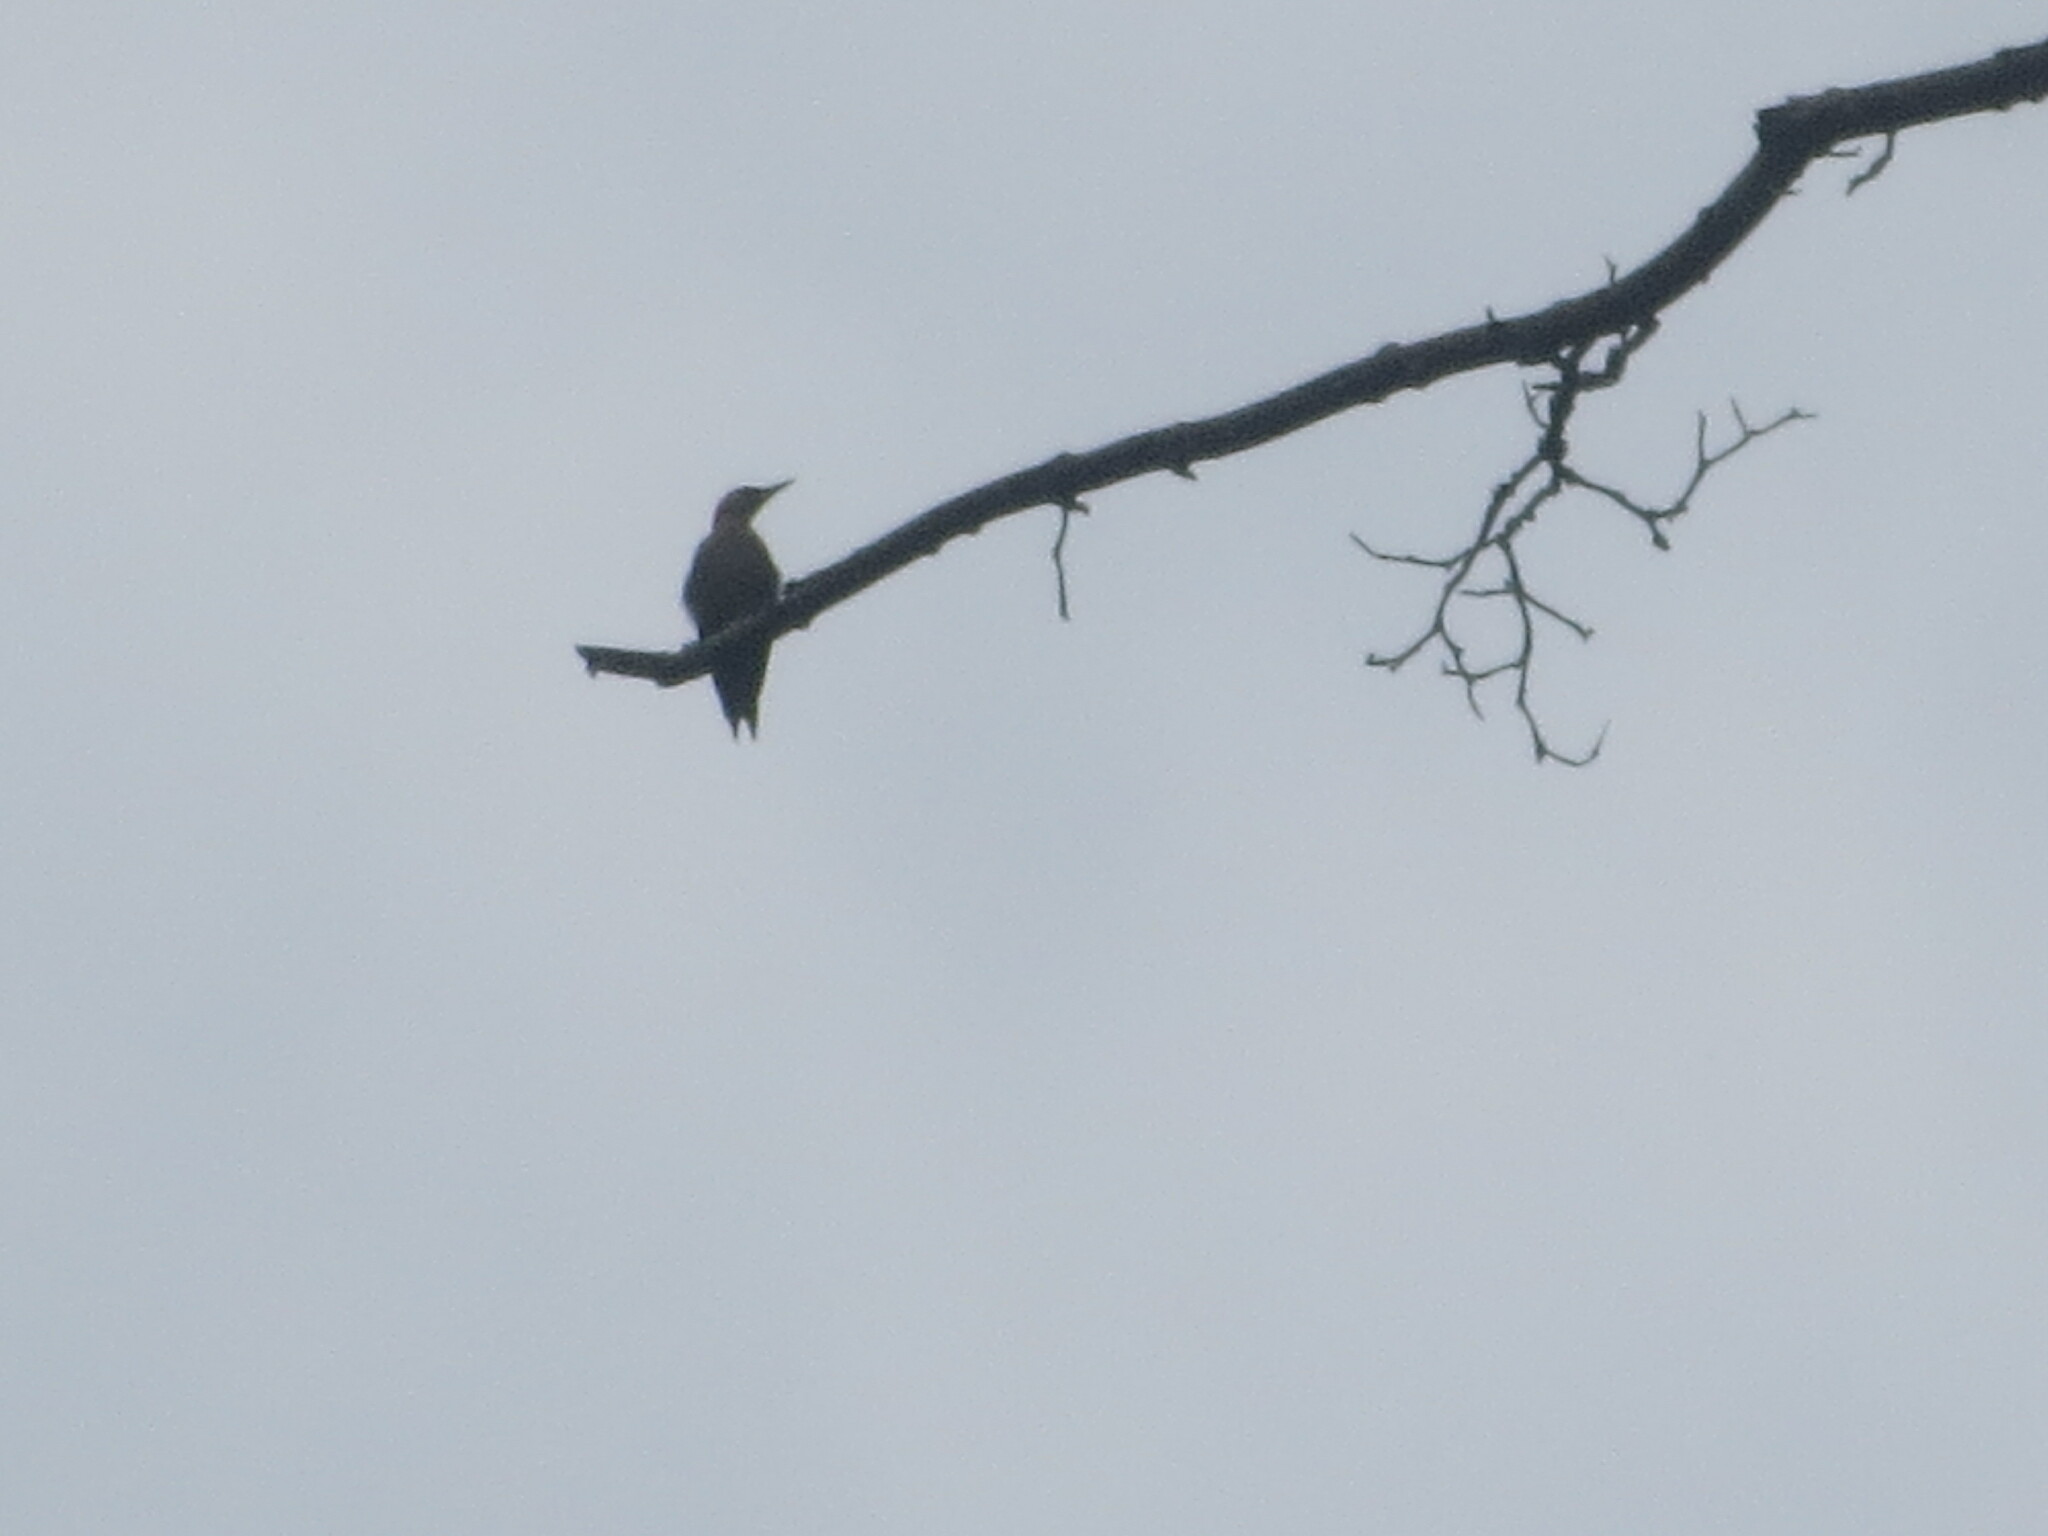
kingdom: Animalia
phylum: Chordata
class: Aves
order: Piciformes
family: Picidae
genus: Colaptes
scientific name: Colaptes auratus
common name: Northern flicker
